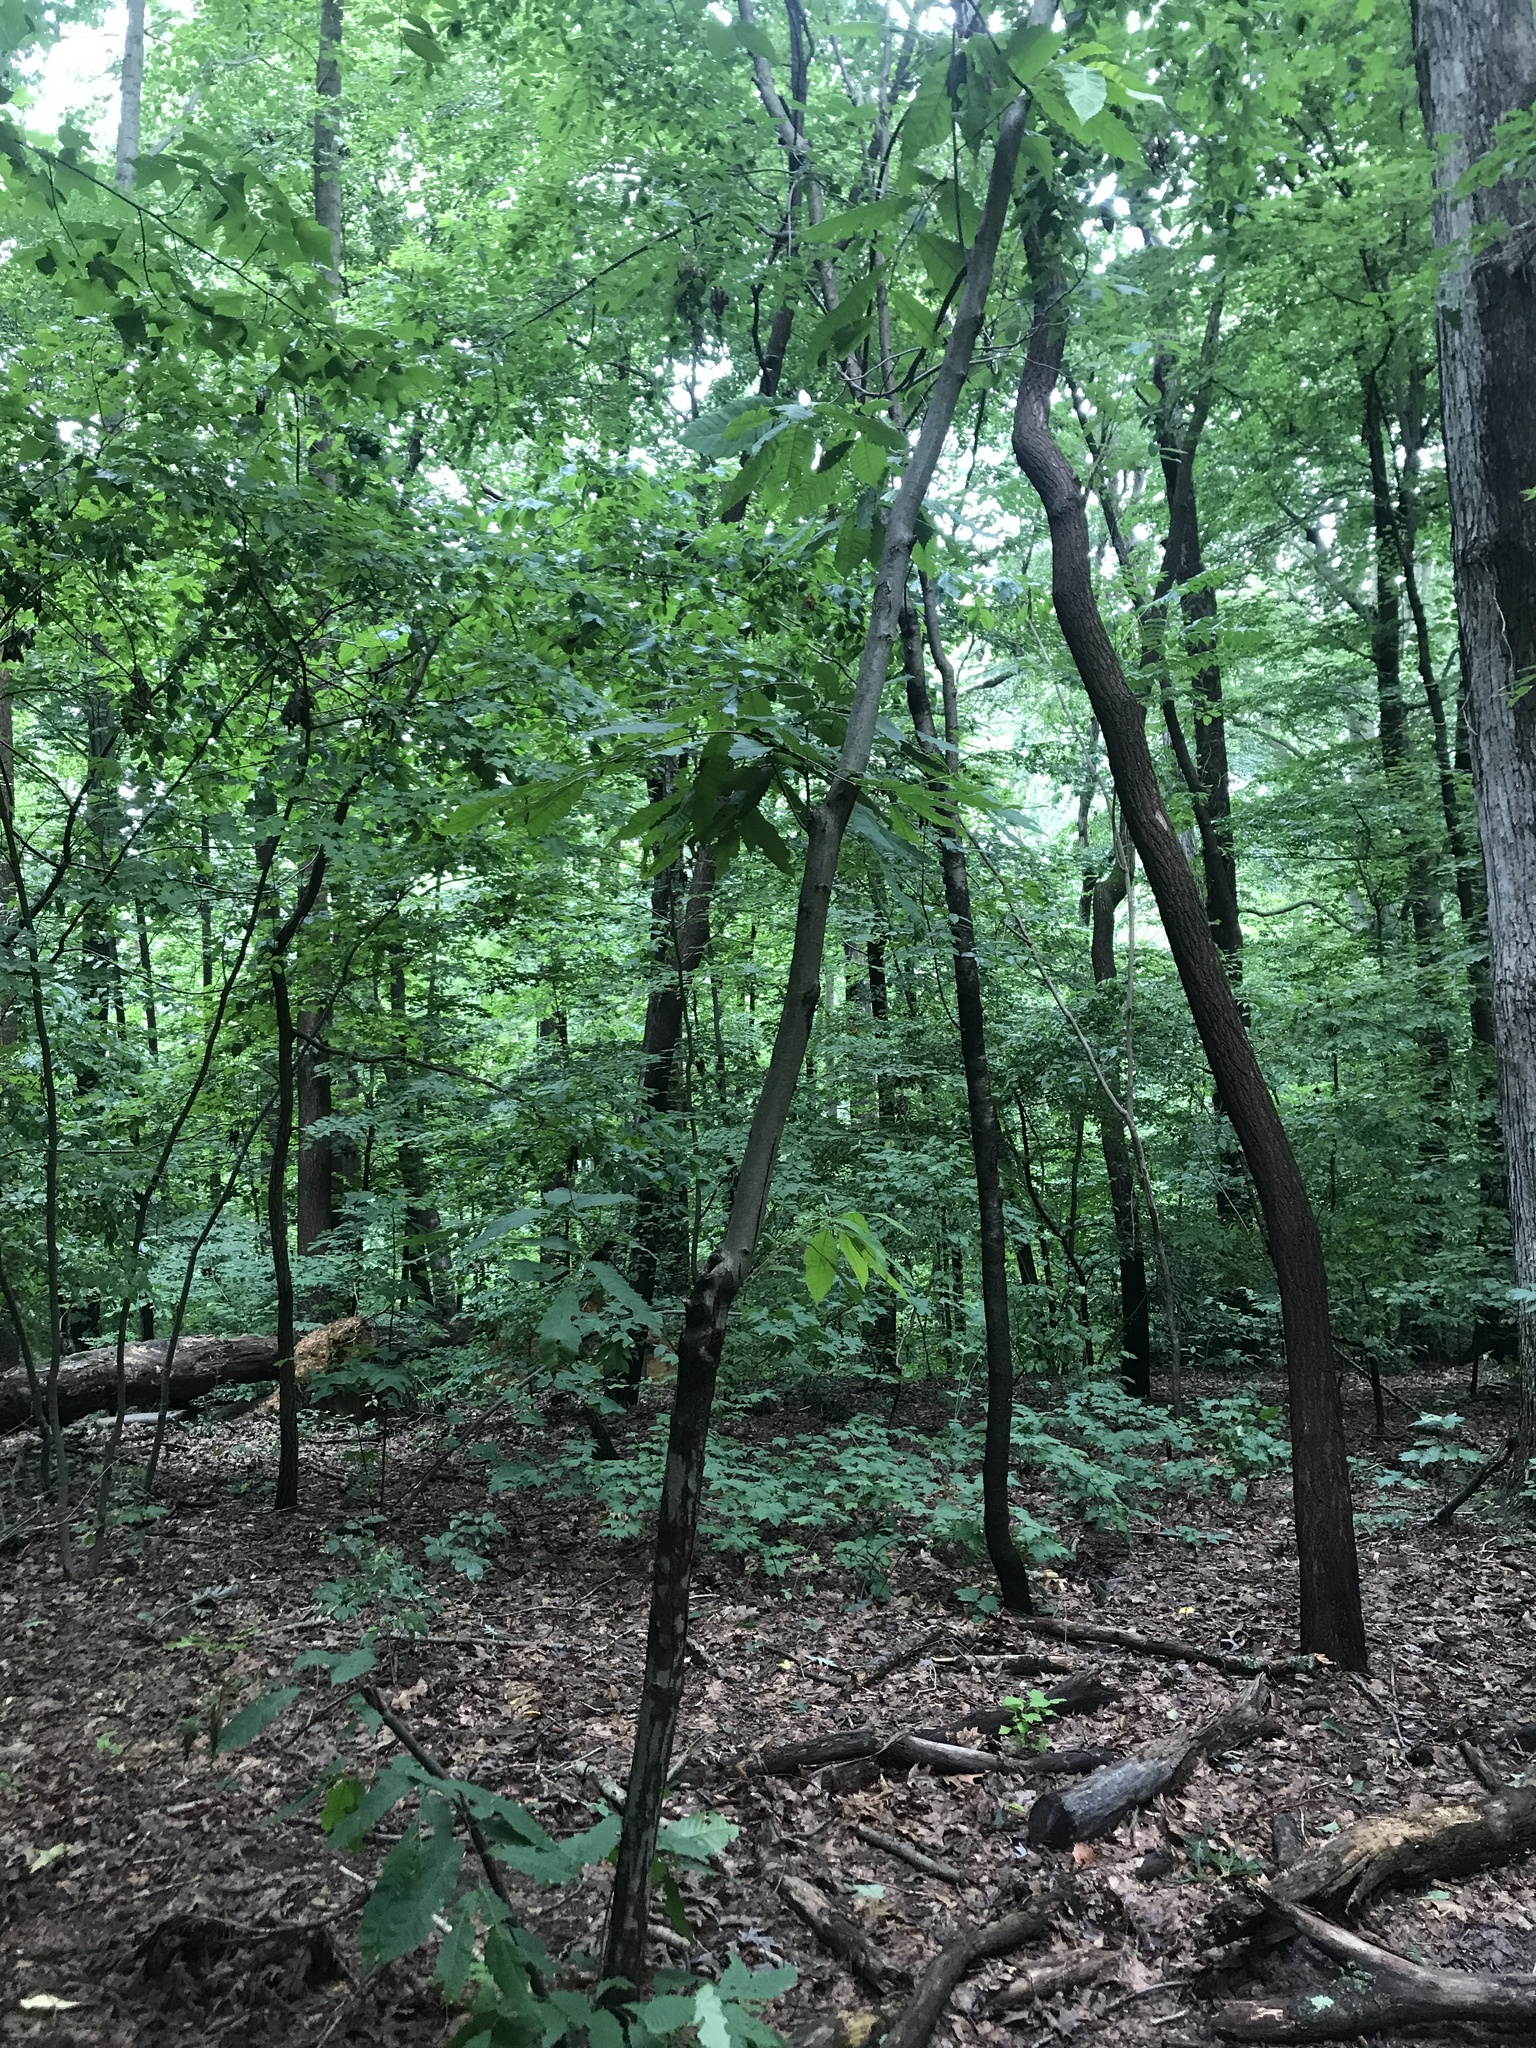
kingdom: Plantae
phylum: Tracheophyta
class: Magnoliopsida
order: Fagales
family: Fagaceae
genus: Castanea
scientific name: Castanea dentata
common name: American chestnut
